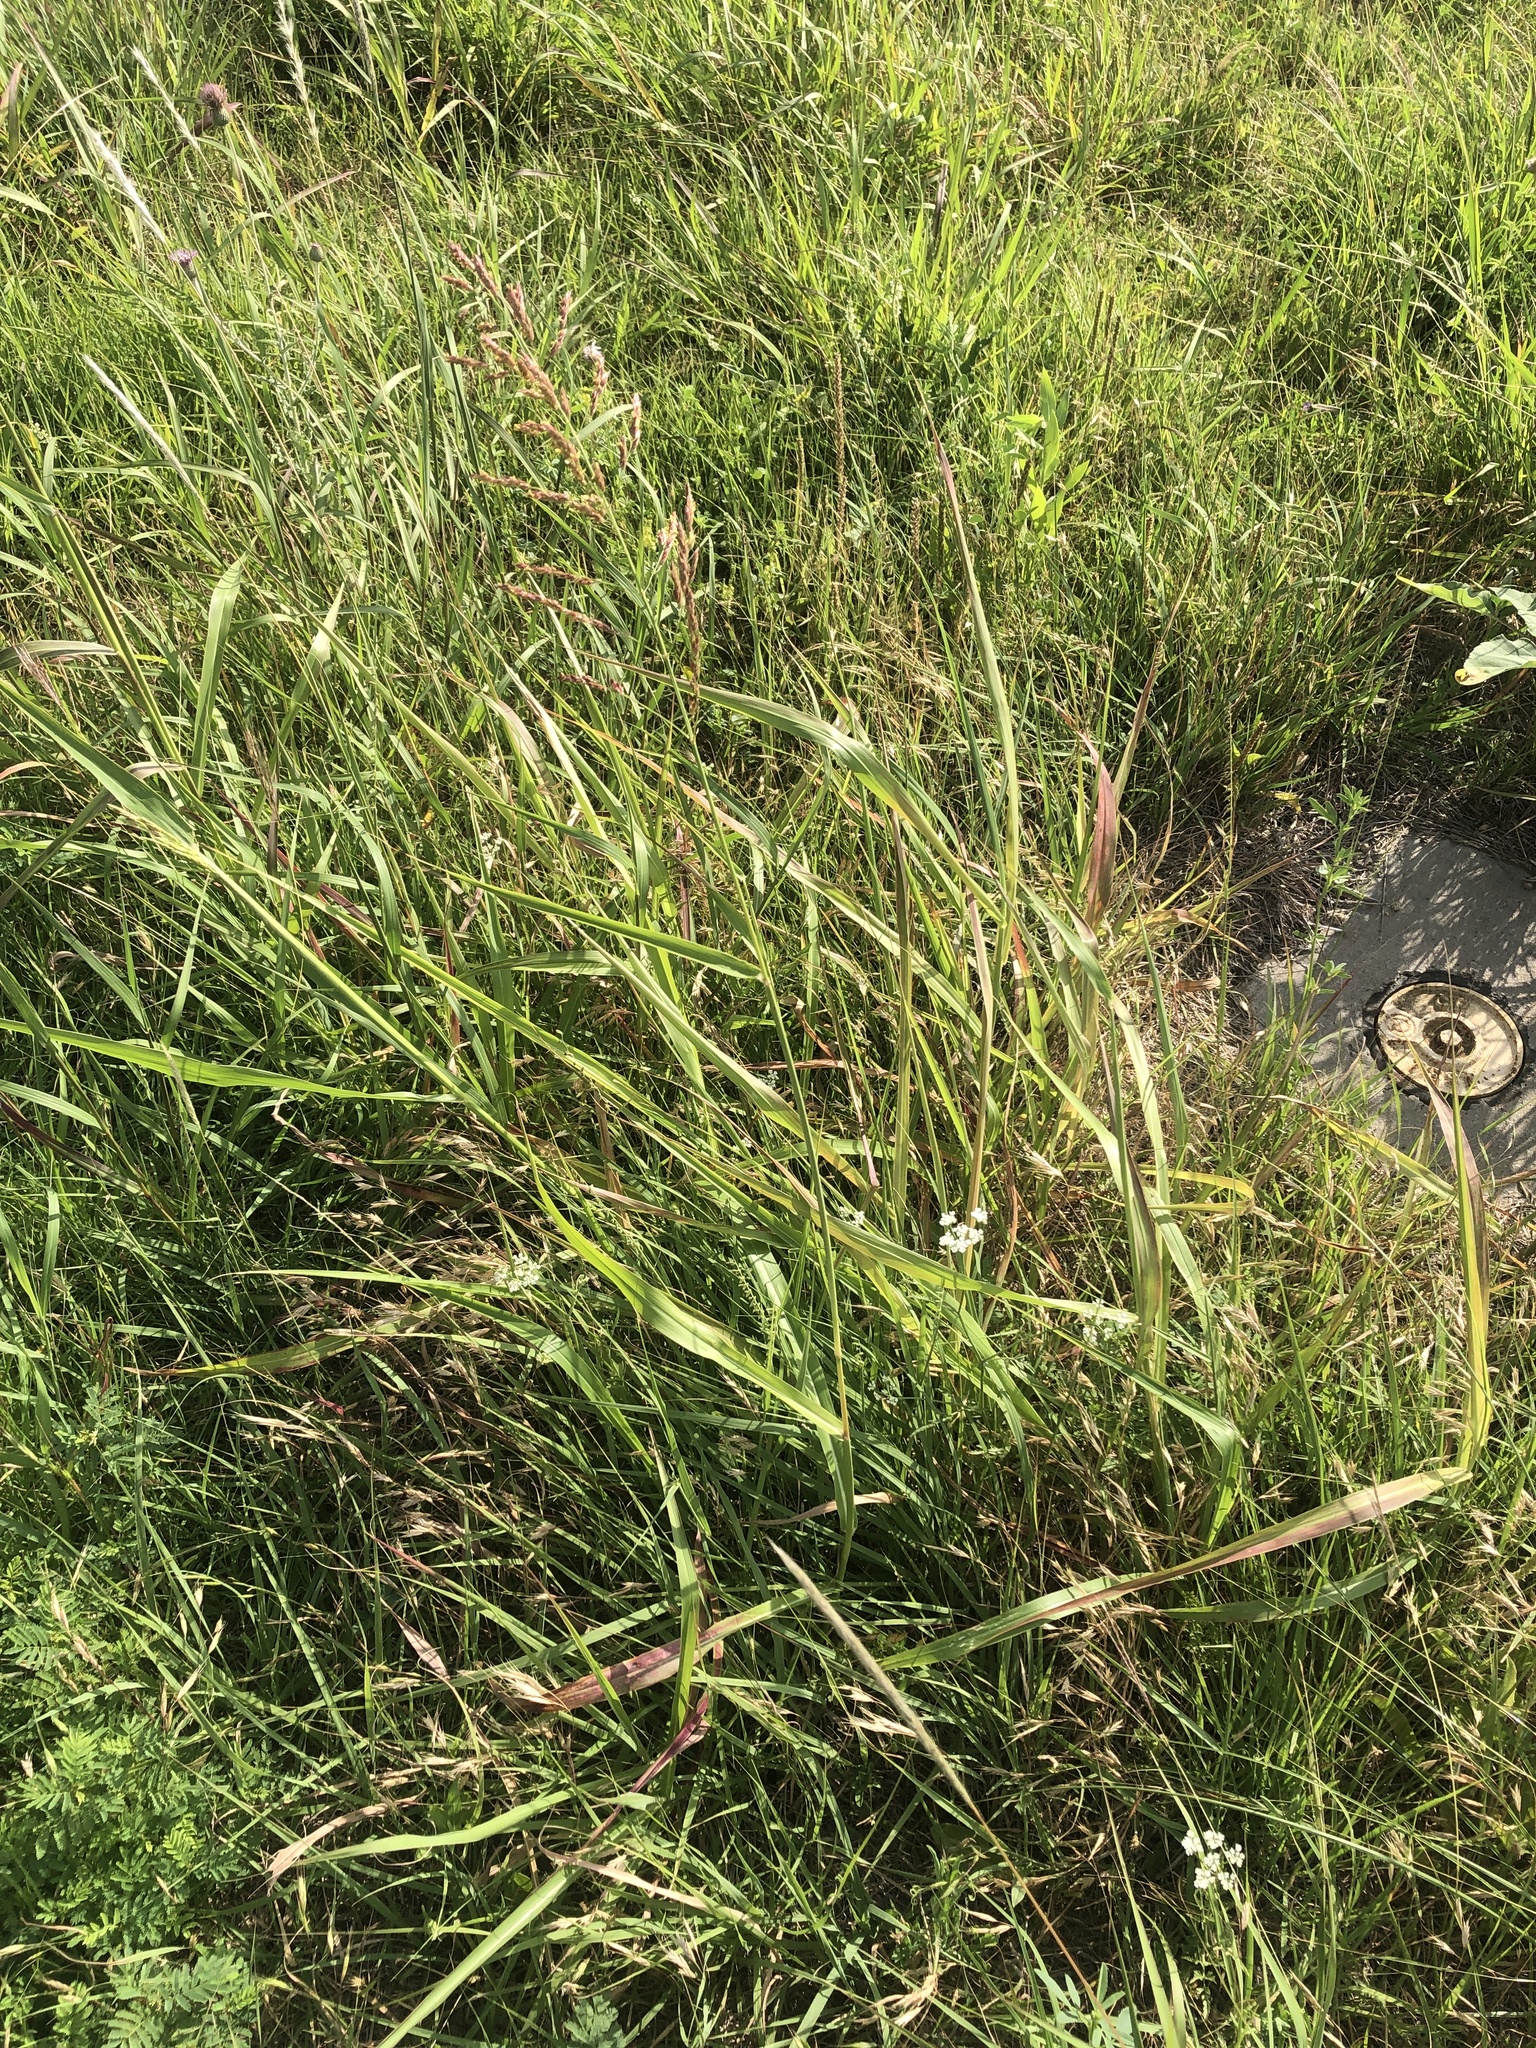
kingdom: Plantae
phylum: Tracheophyta
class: Liliopsida
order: Poales
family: Poaceae
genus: Sorghum
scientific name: Sorghum halepense
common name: Johnson-grass
